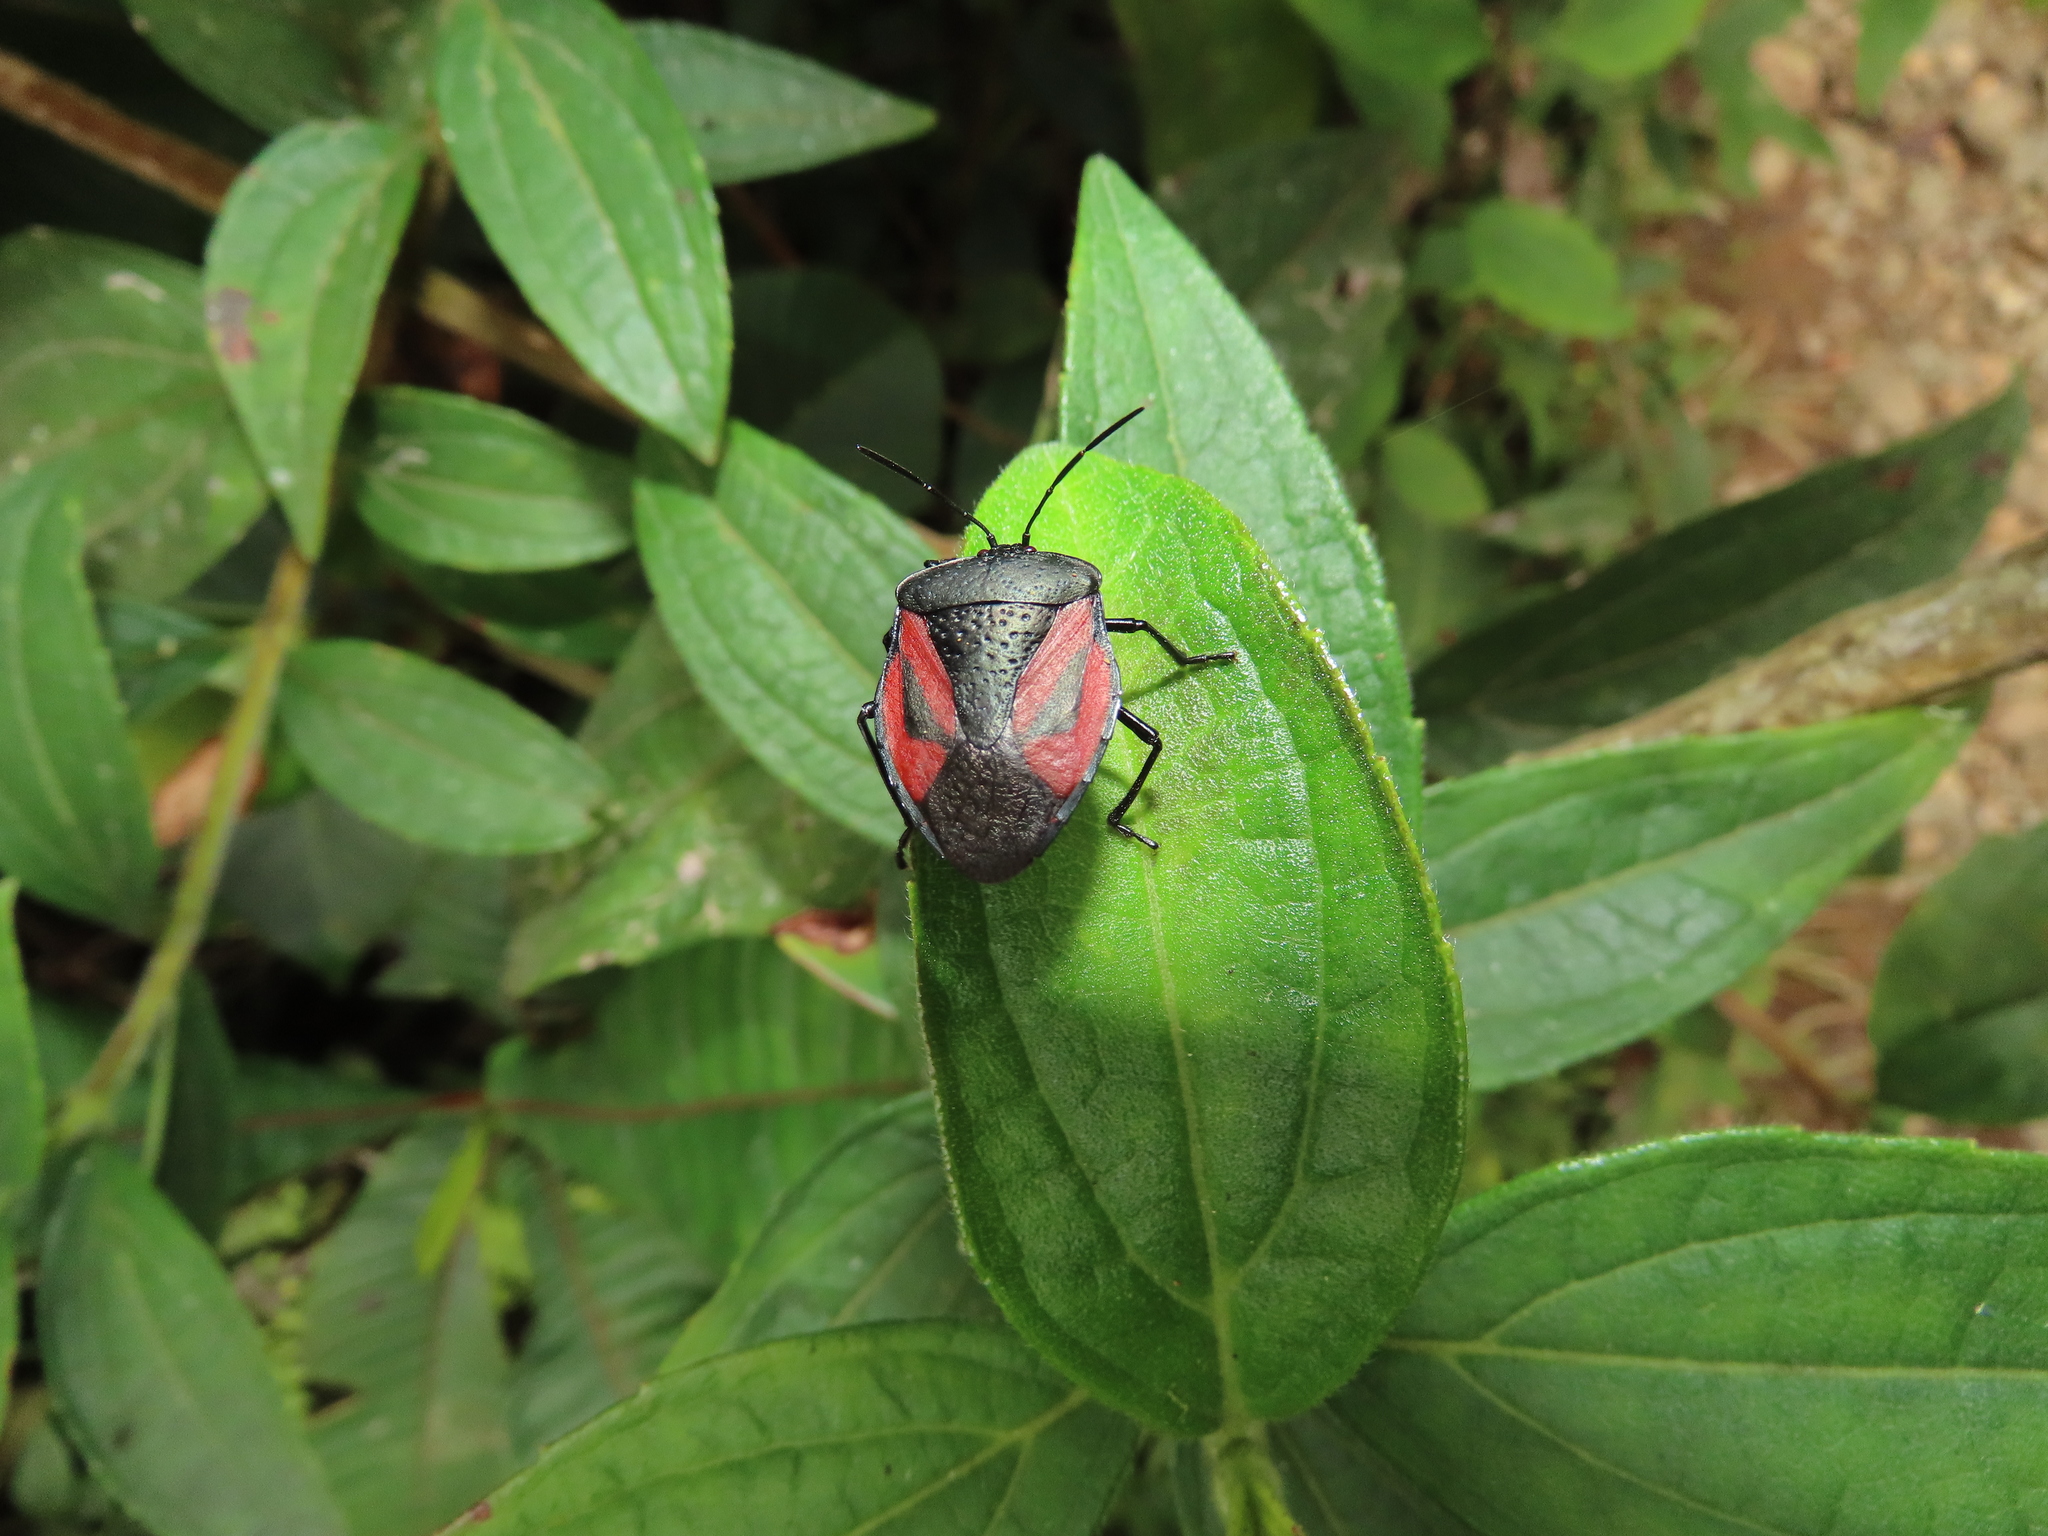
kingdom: Animalia
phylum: Arthropoda
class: Insecta
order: Hemiptera
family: Pentatomidae
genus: Brachystethus
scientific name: Brachystethus tricolor
